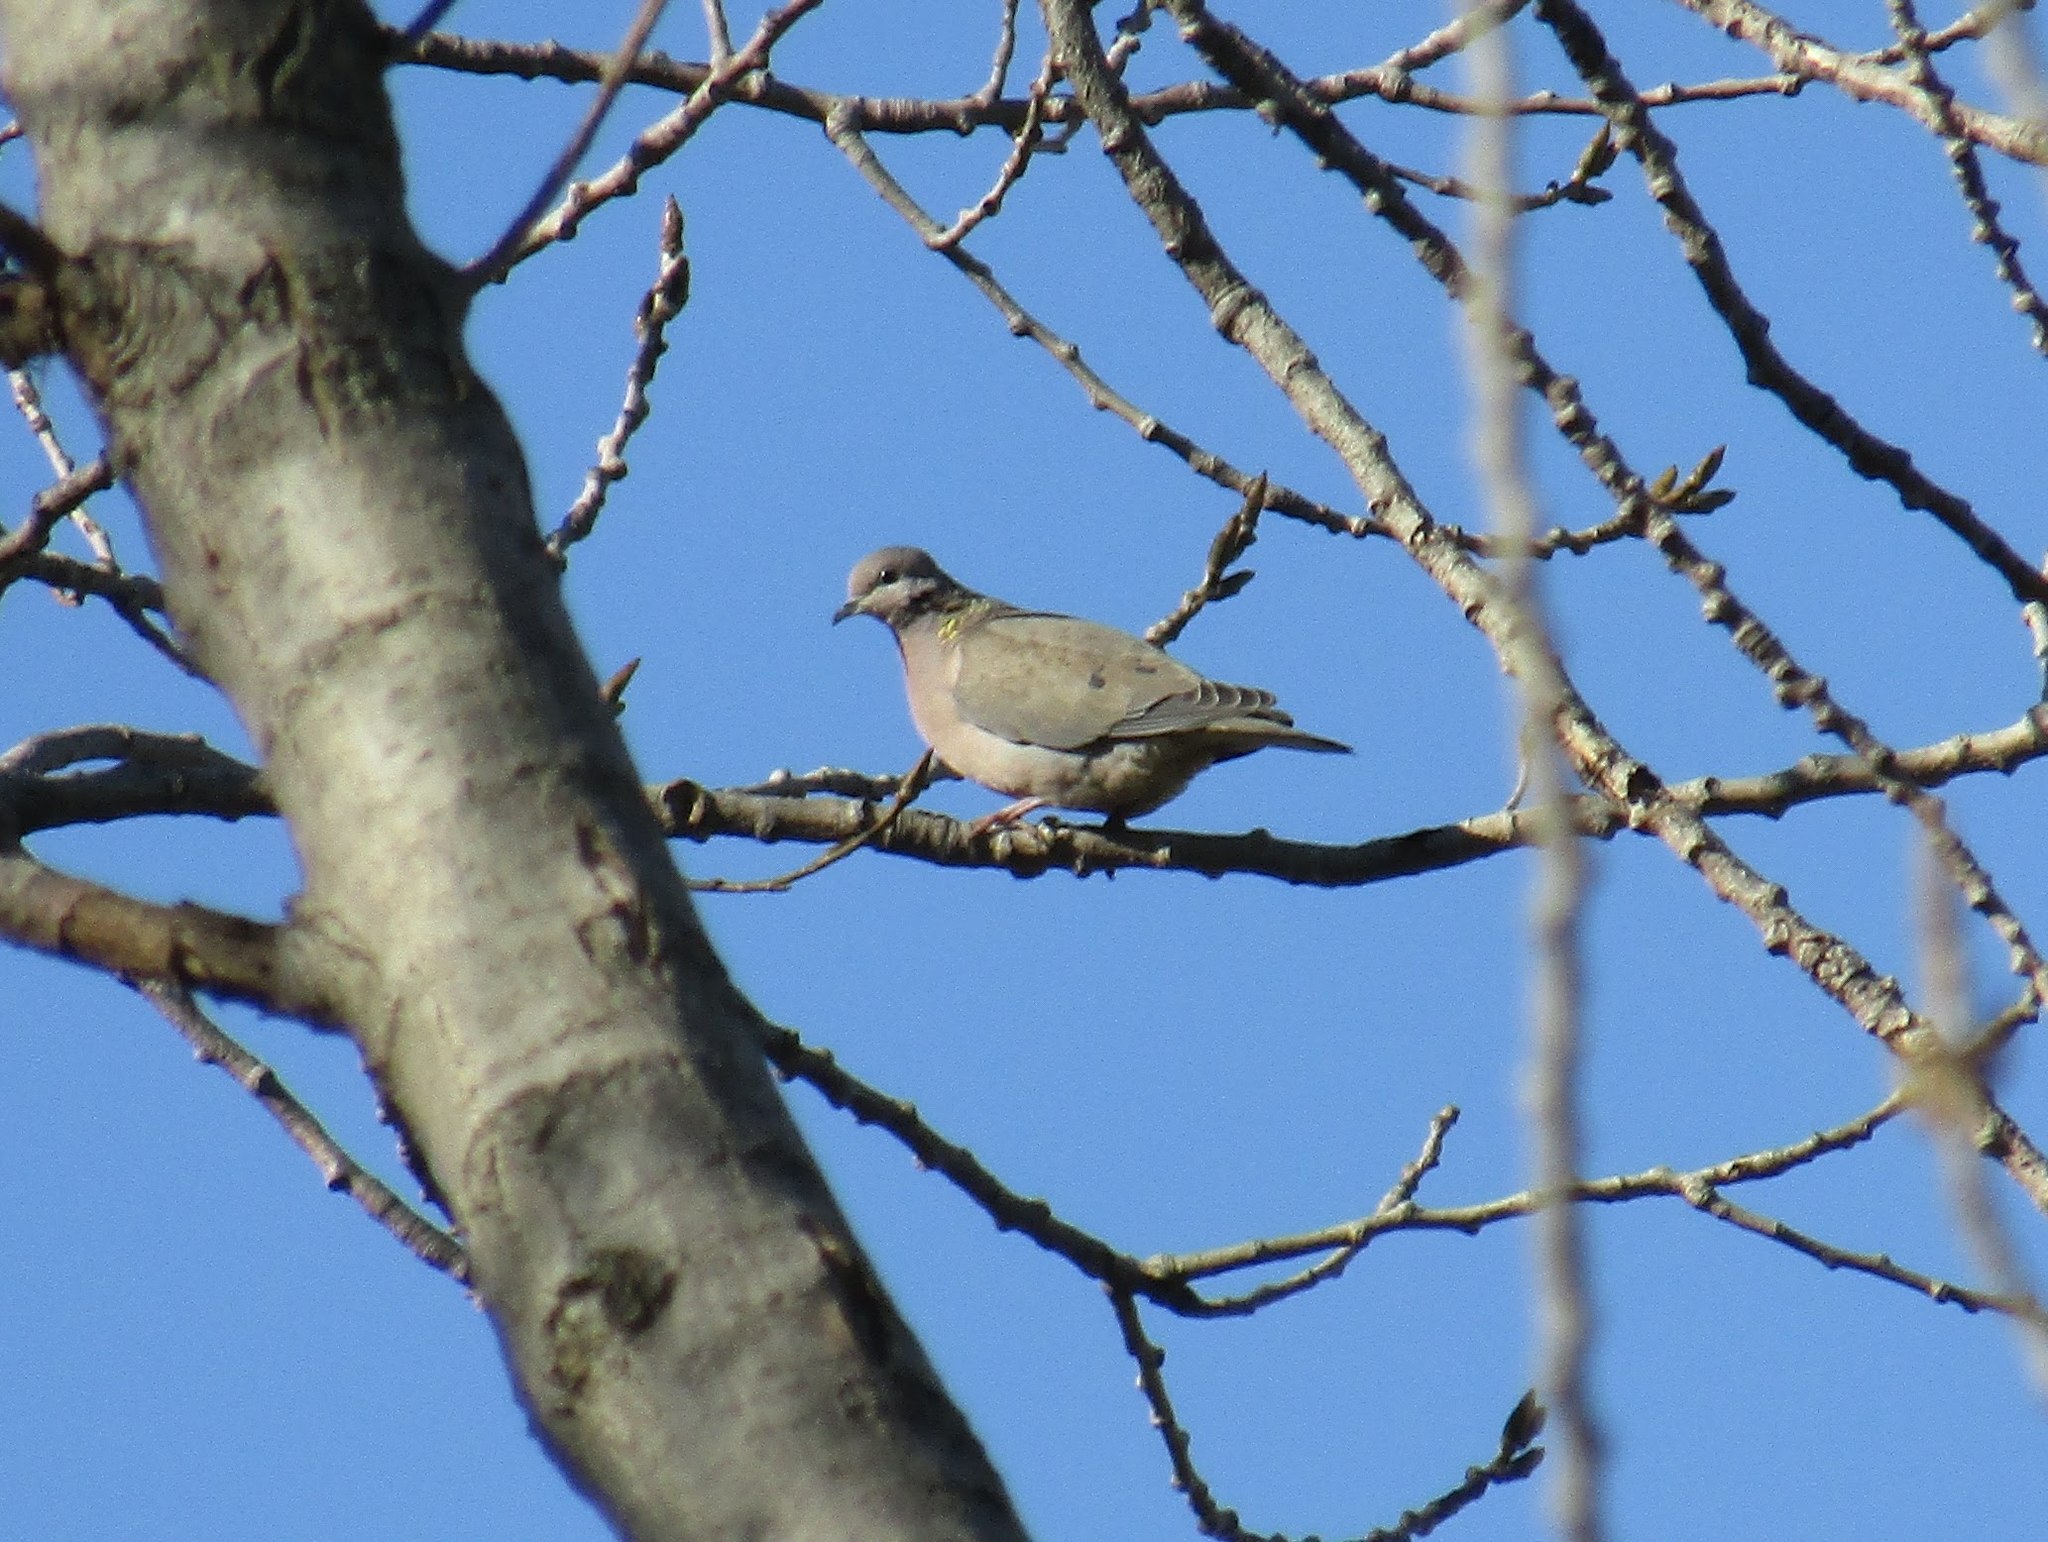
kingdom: Animalia
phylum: Chordata
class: Aves
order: Columbiformes
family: Columbidae
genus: Zenaida
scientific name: Zenaida auriculata
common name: Eared dove
